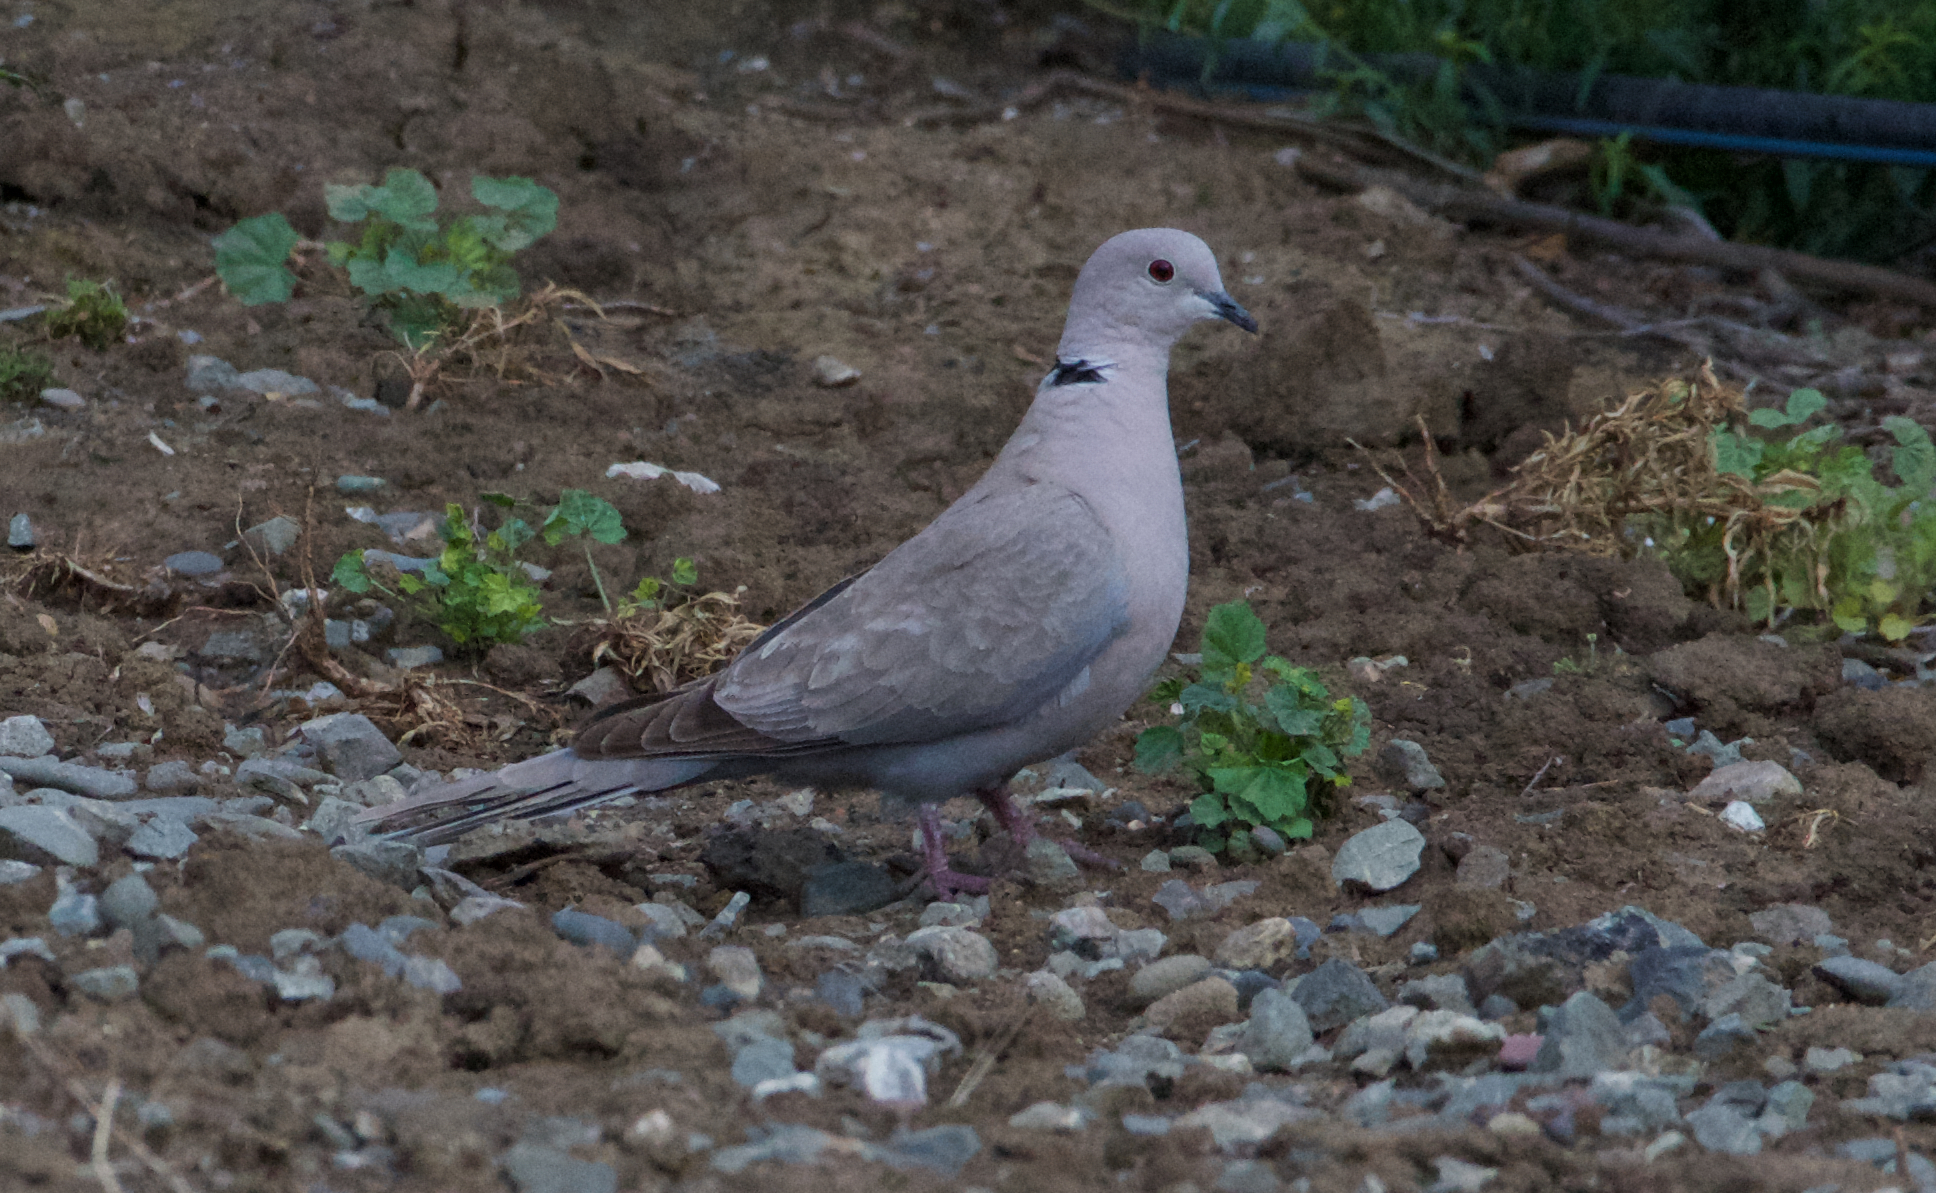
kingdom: Animalia
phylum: Chordata
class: Aves
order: Columbiformes
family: Columbidae
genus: Streptopelia
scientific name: Streptopelia decaocto
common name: Eurasian collared dove
